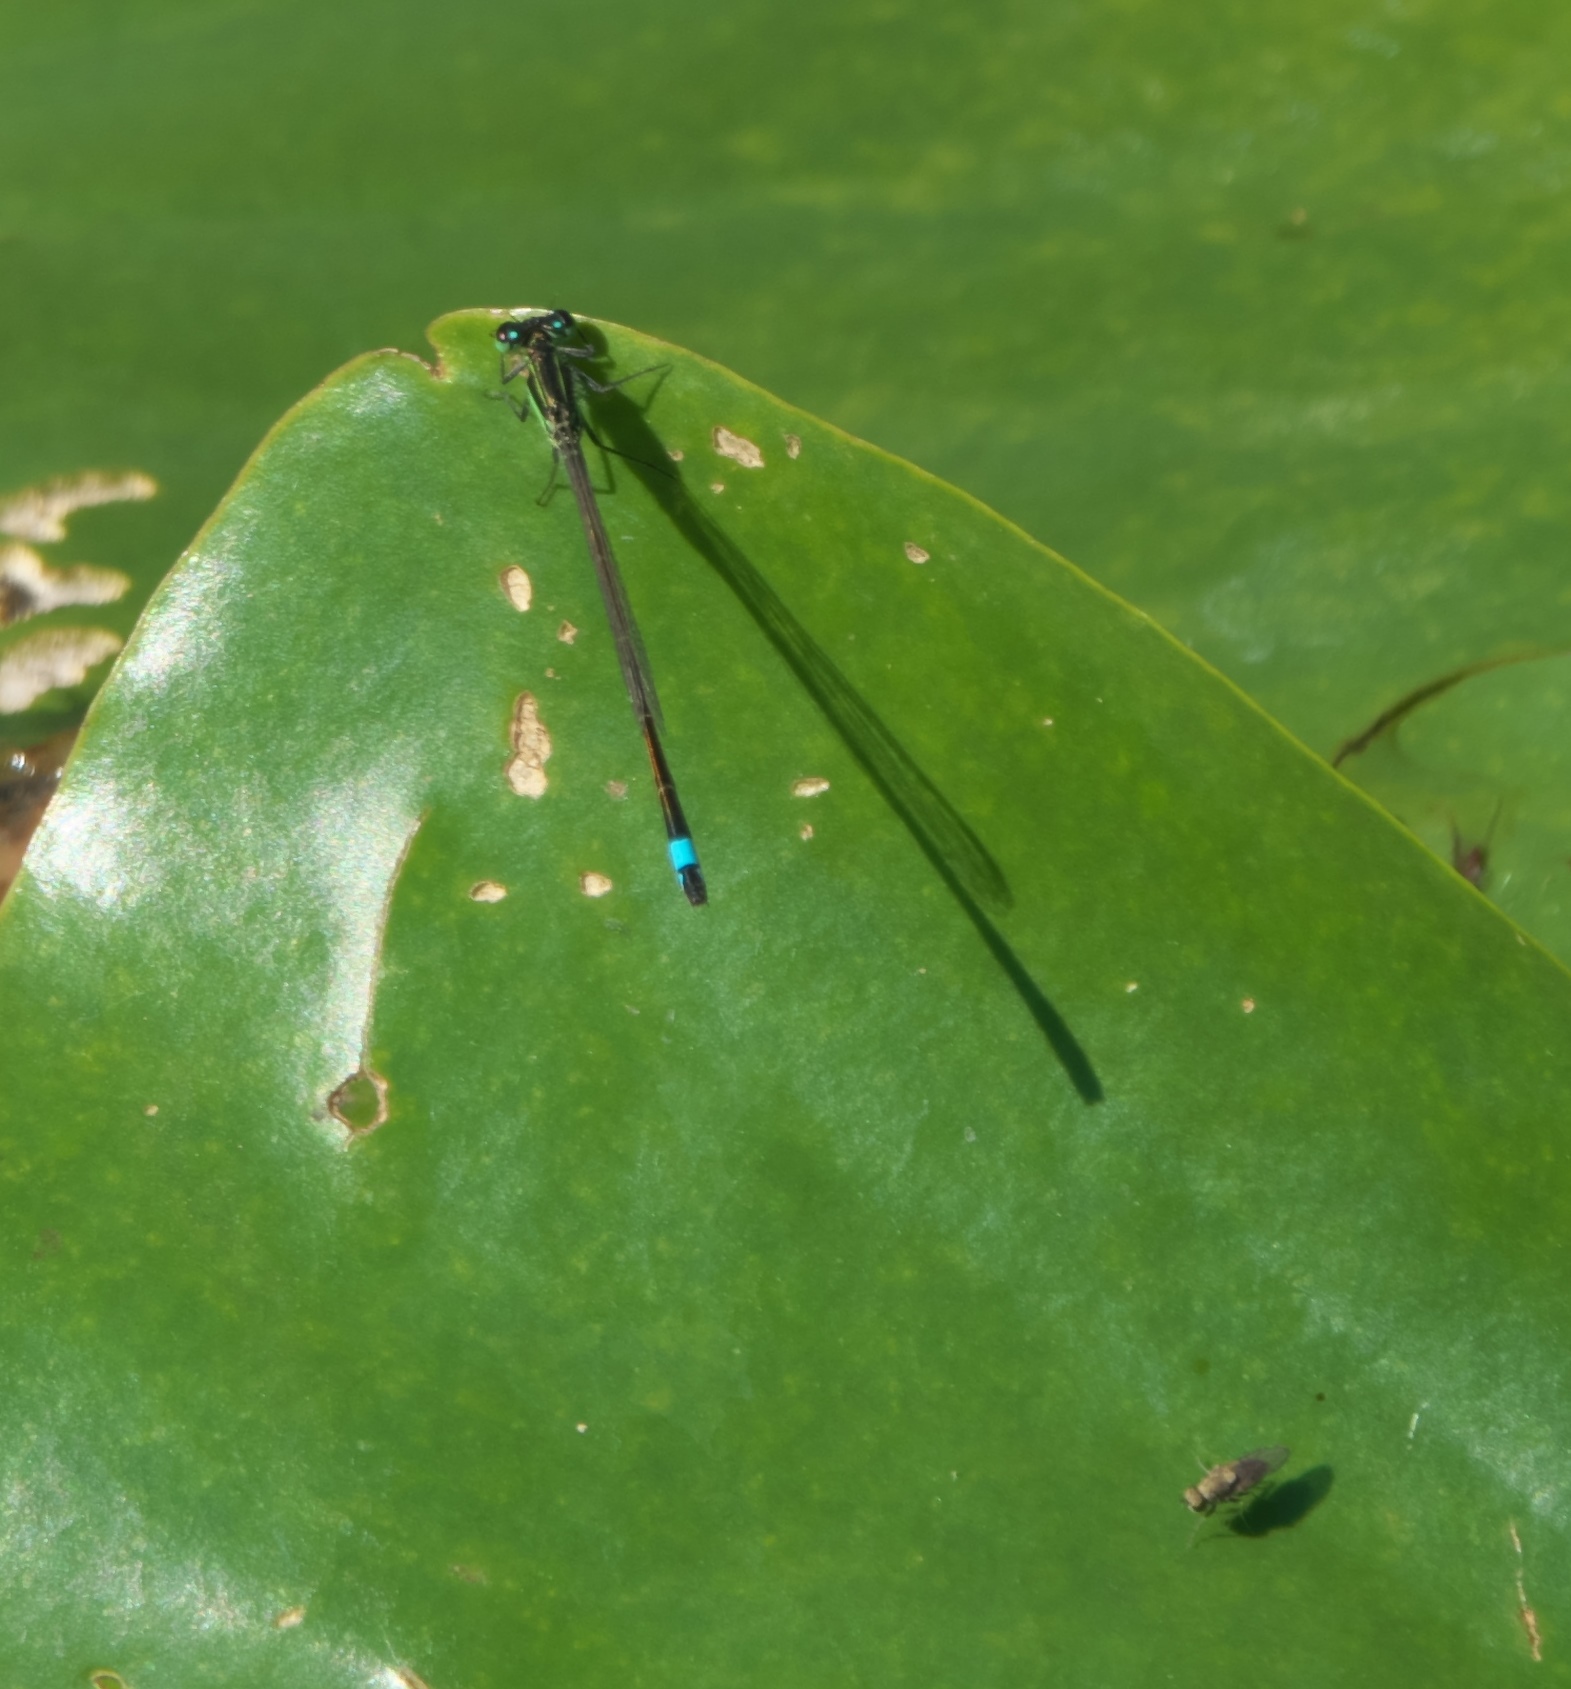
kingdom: Animalia
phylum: Arthropoda
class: Insecta
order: Odonata
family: Coenagrionidae
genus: Ischnura
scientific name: Ischnura ramburii
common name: Rambur's forktail
